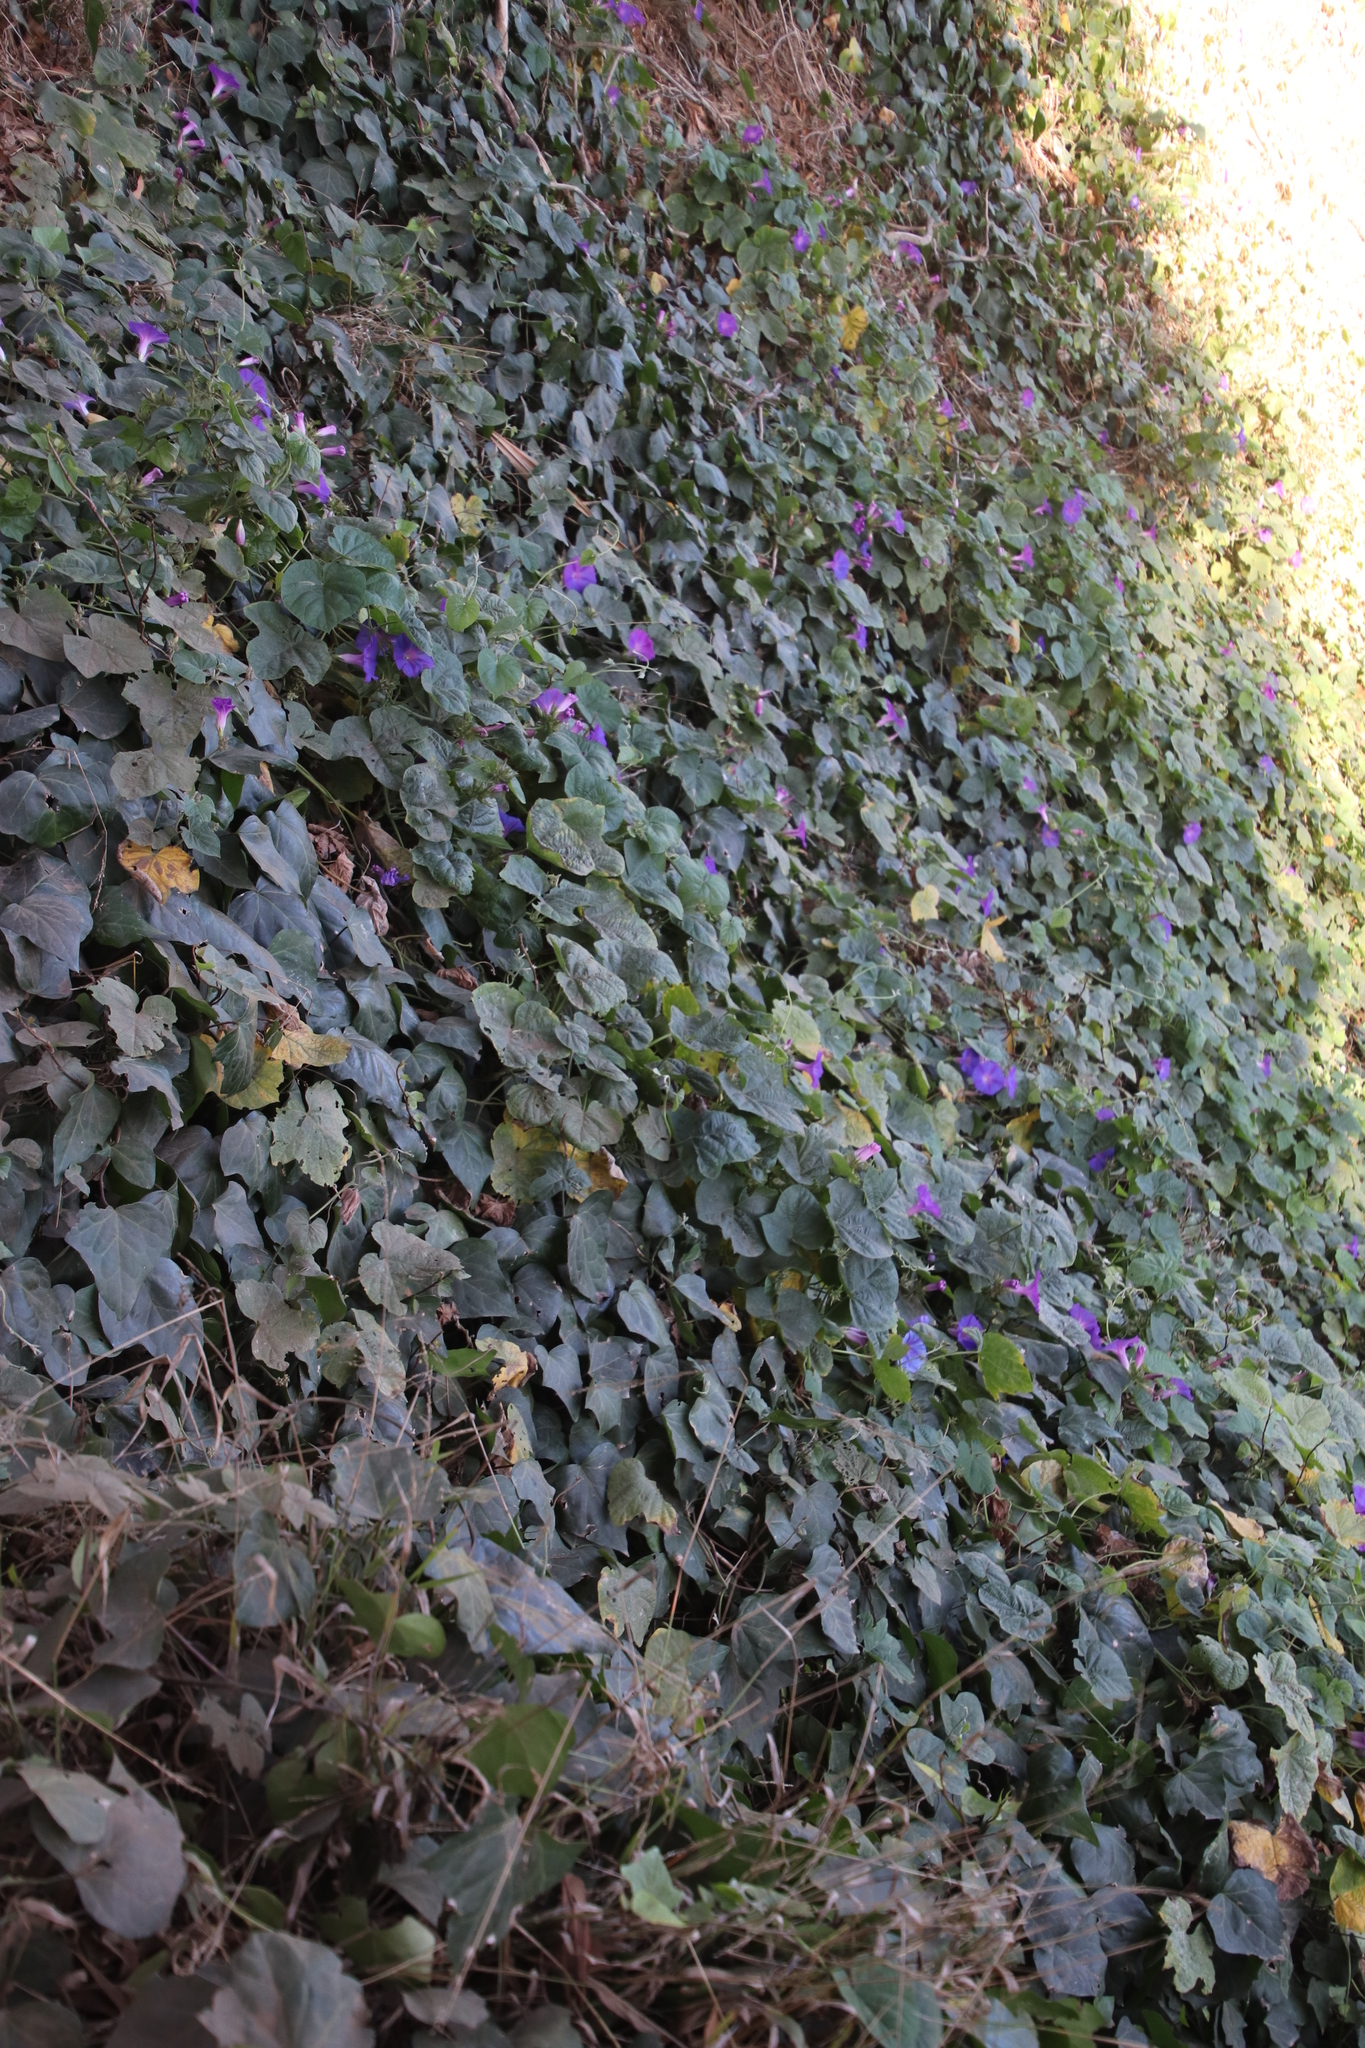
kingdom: Plantae
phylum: Tracheophyta
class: Magnoliopsida
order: Solanales
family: Convolvulaceae
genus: Ipomoea
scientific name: Ipomoea indica
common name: Blue dawnflower
